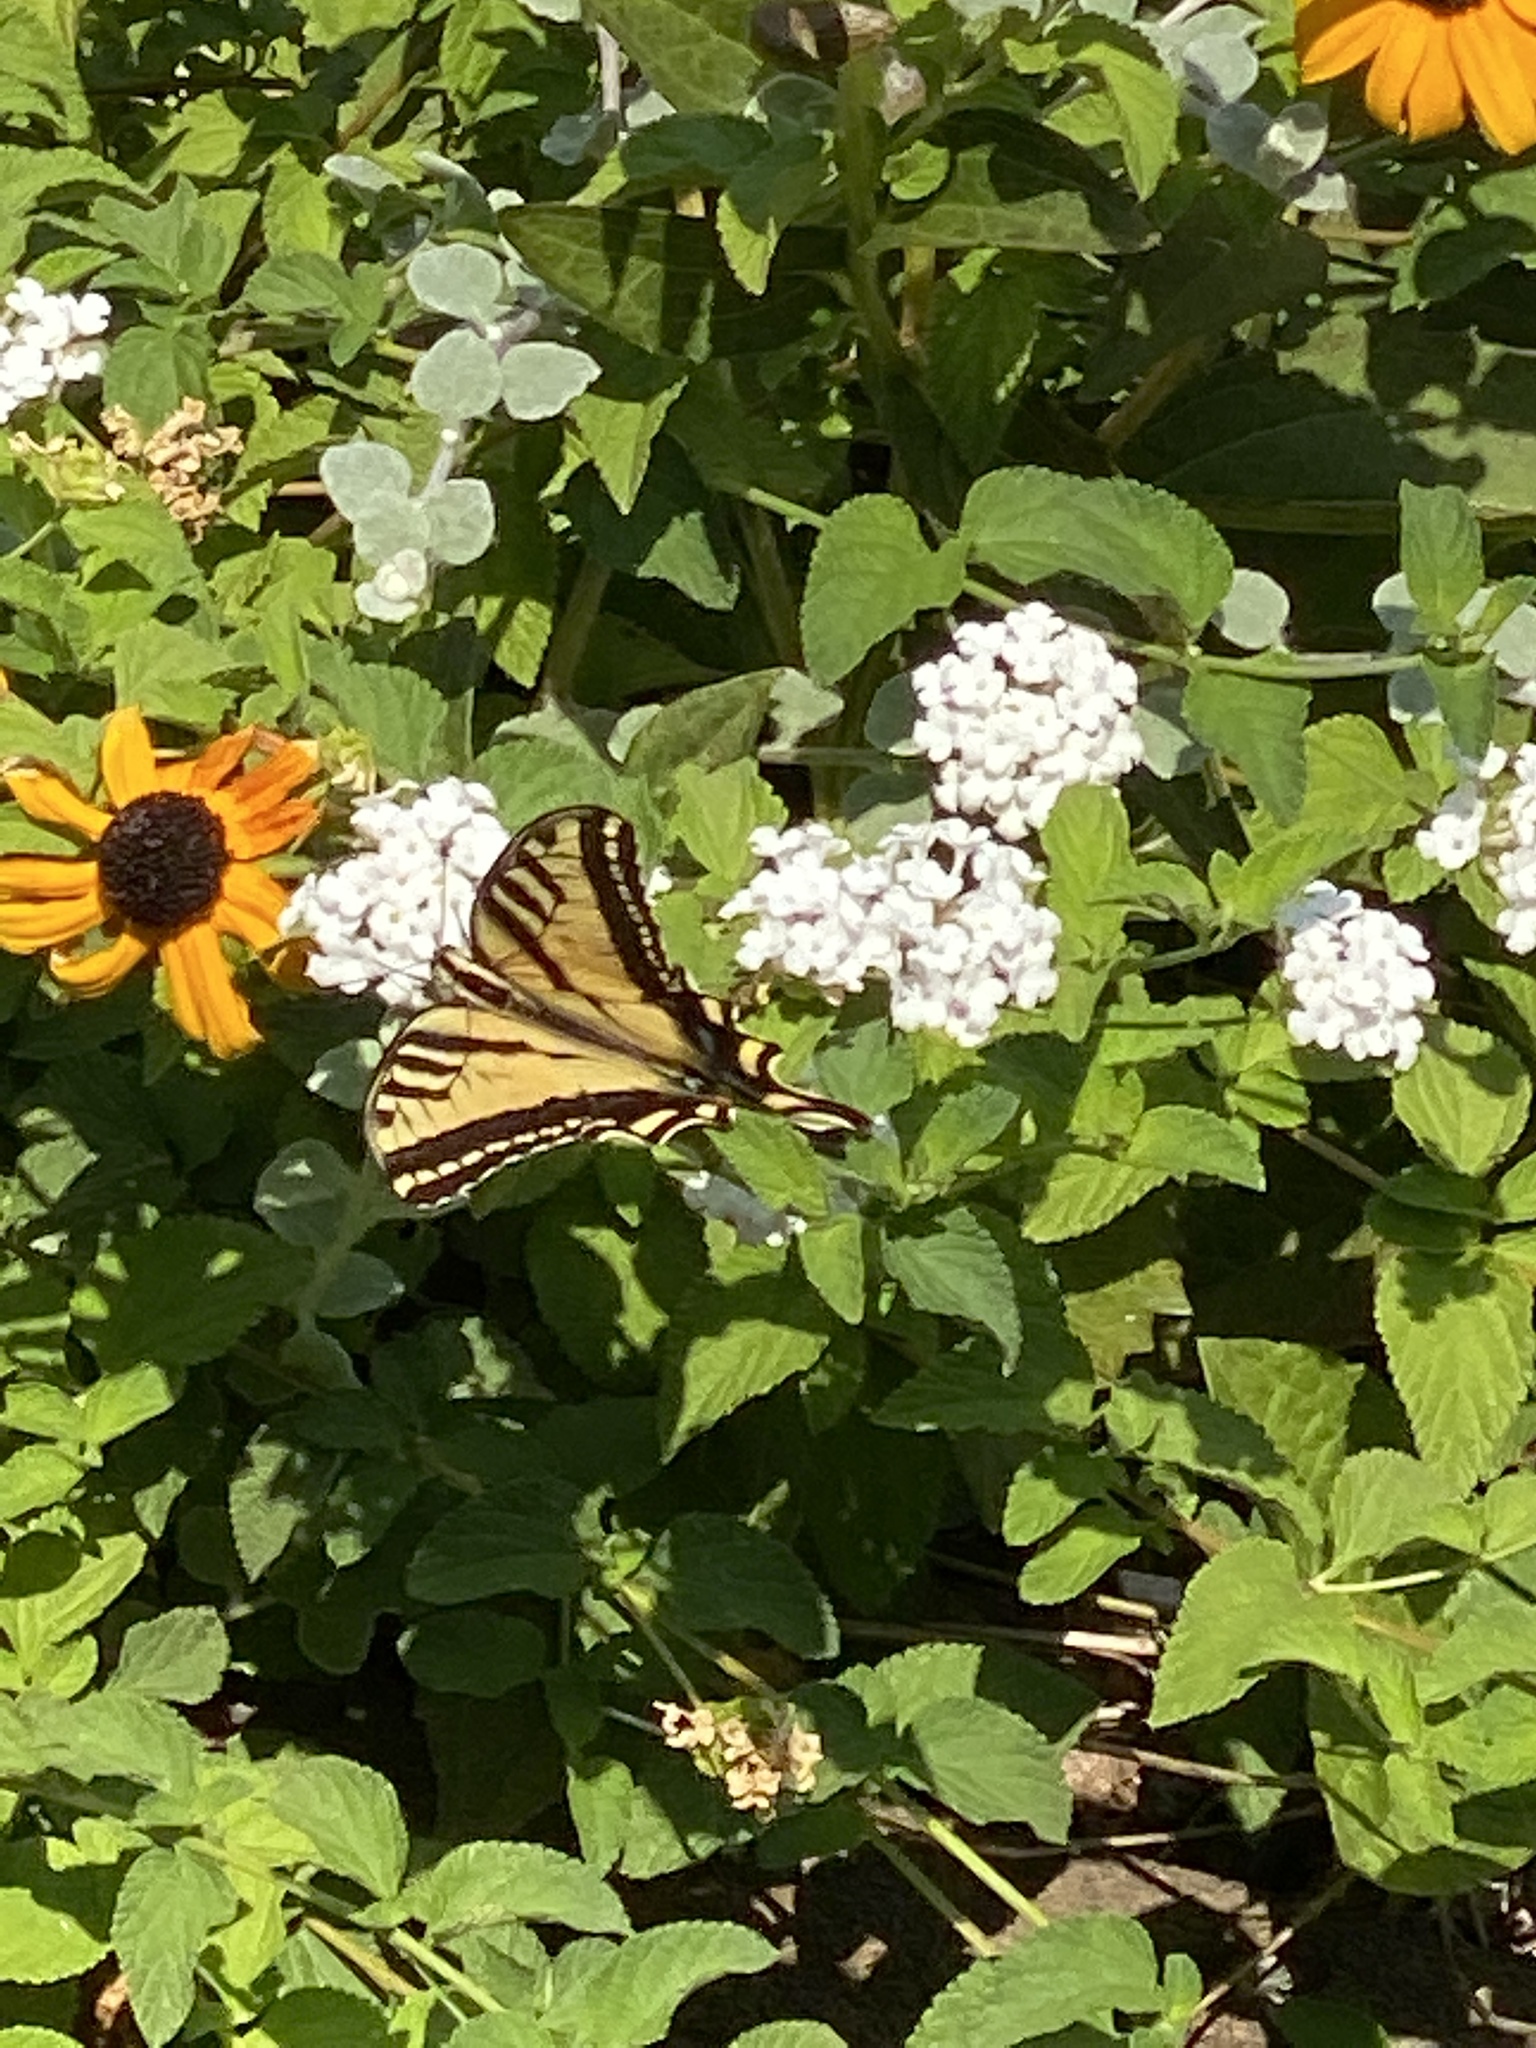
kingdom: Animalia
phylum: Arthropoda
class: Insecta
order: Lepidoptera
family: Papilionidae
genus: Papilio
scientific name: Papilio rutulus
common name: Western tiger swallowtail
